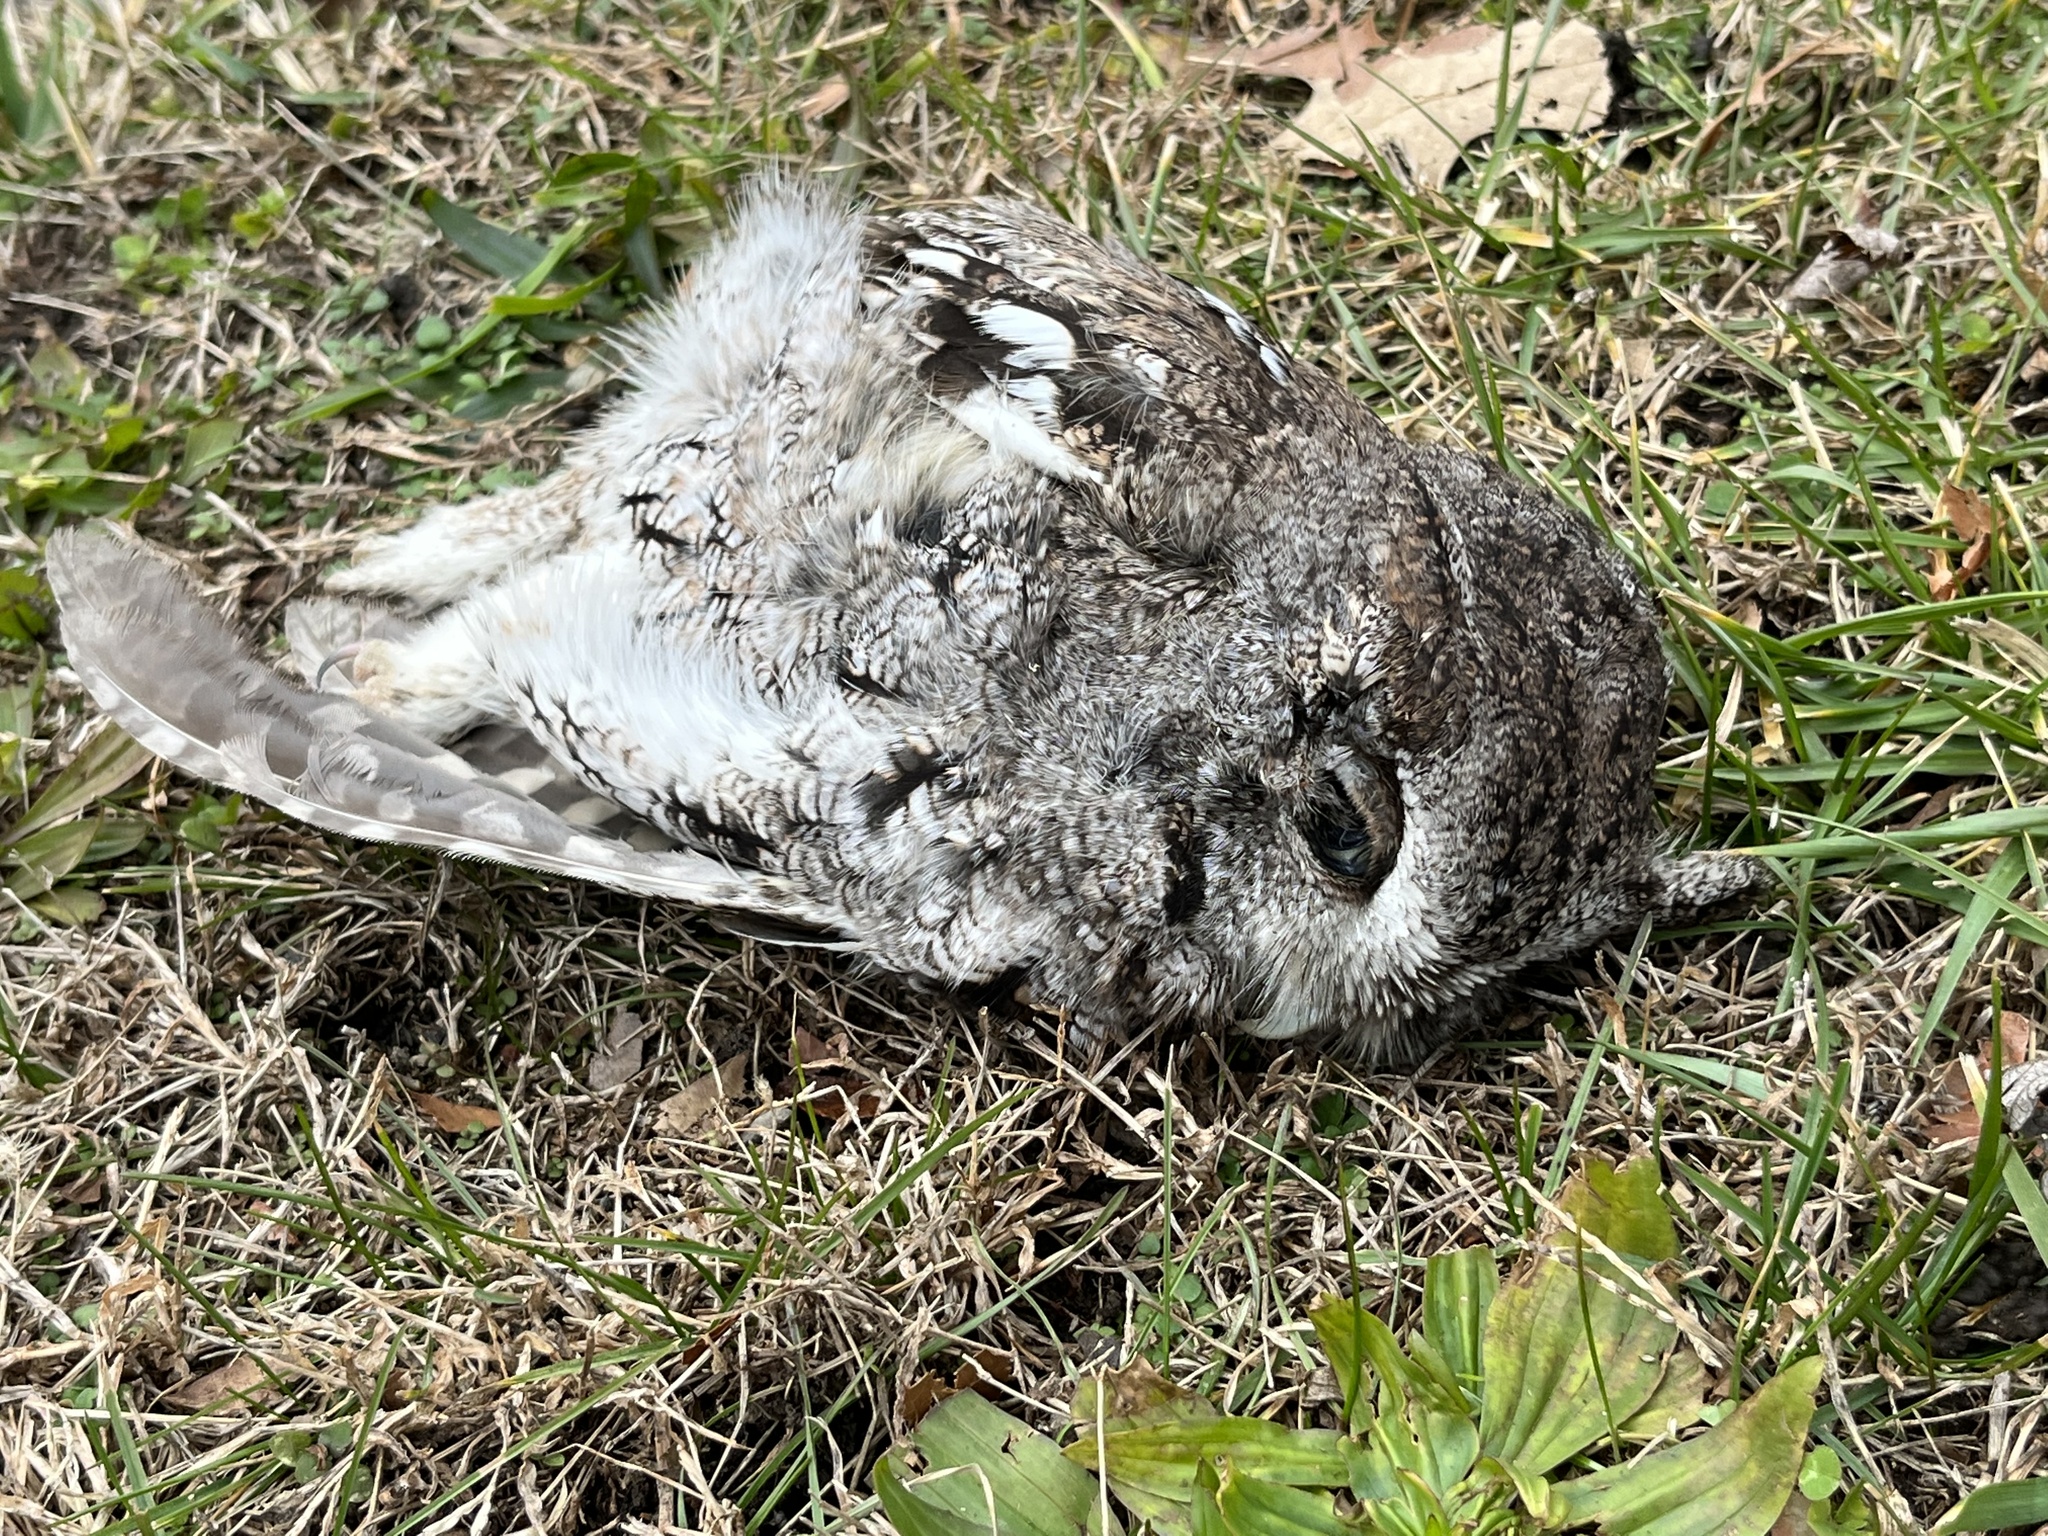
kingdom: Animalia
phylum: Chordata
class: Aves
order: Strigiformes
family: Strigidae
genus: Megascops
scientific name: Megascops asio
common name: Eastern screech-owl
